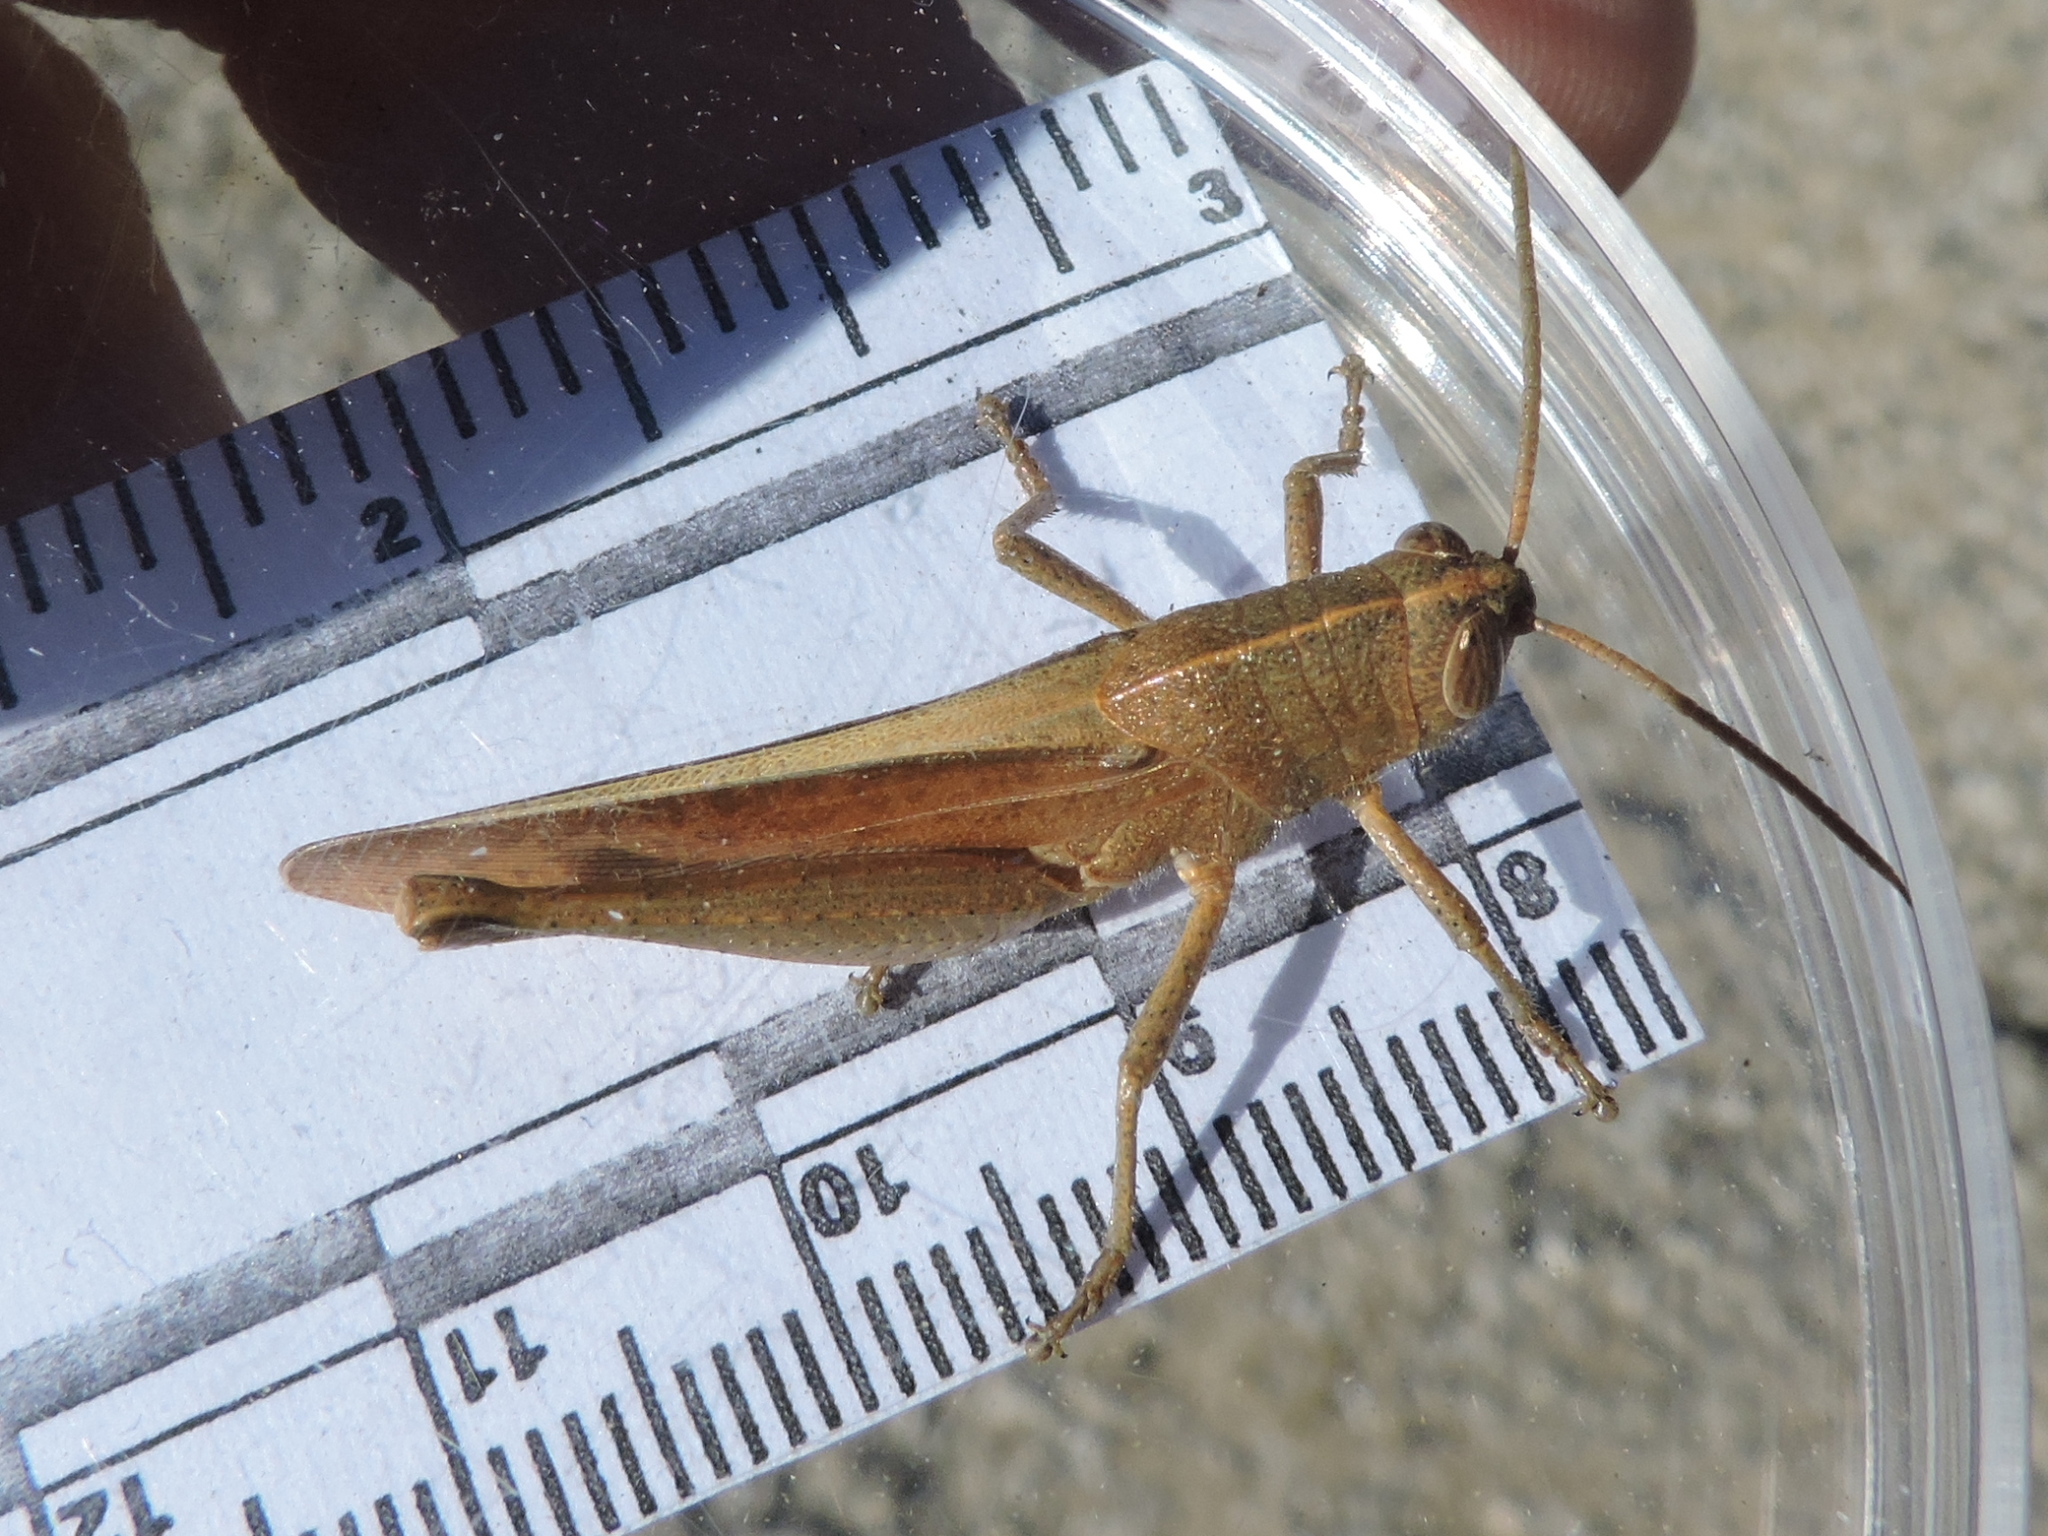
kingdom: Animalia
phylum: Arthropoda
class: Insecta
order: Orthoptera
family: Acrididae
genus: Schistocerca
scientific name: Schistocerca damnifica
